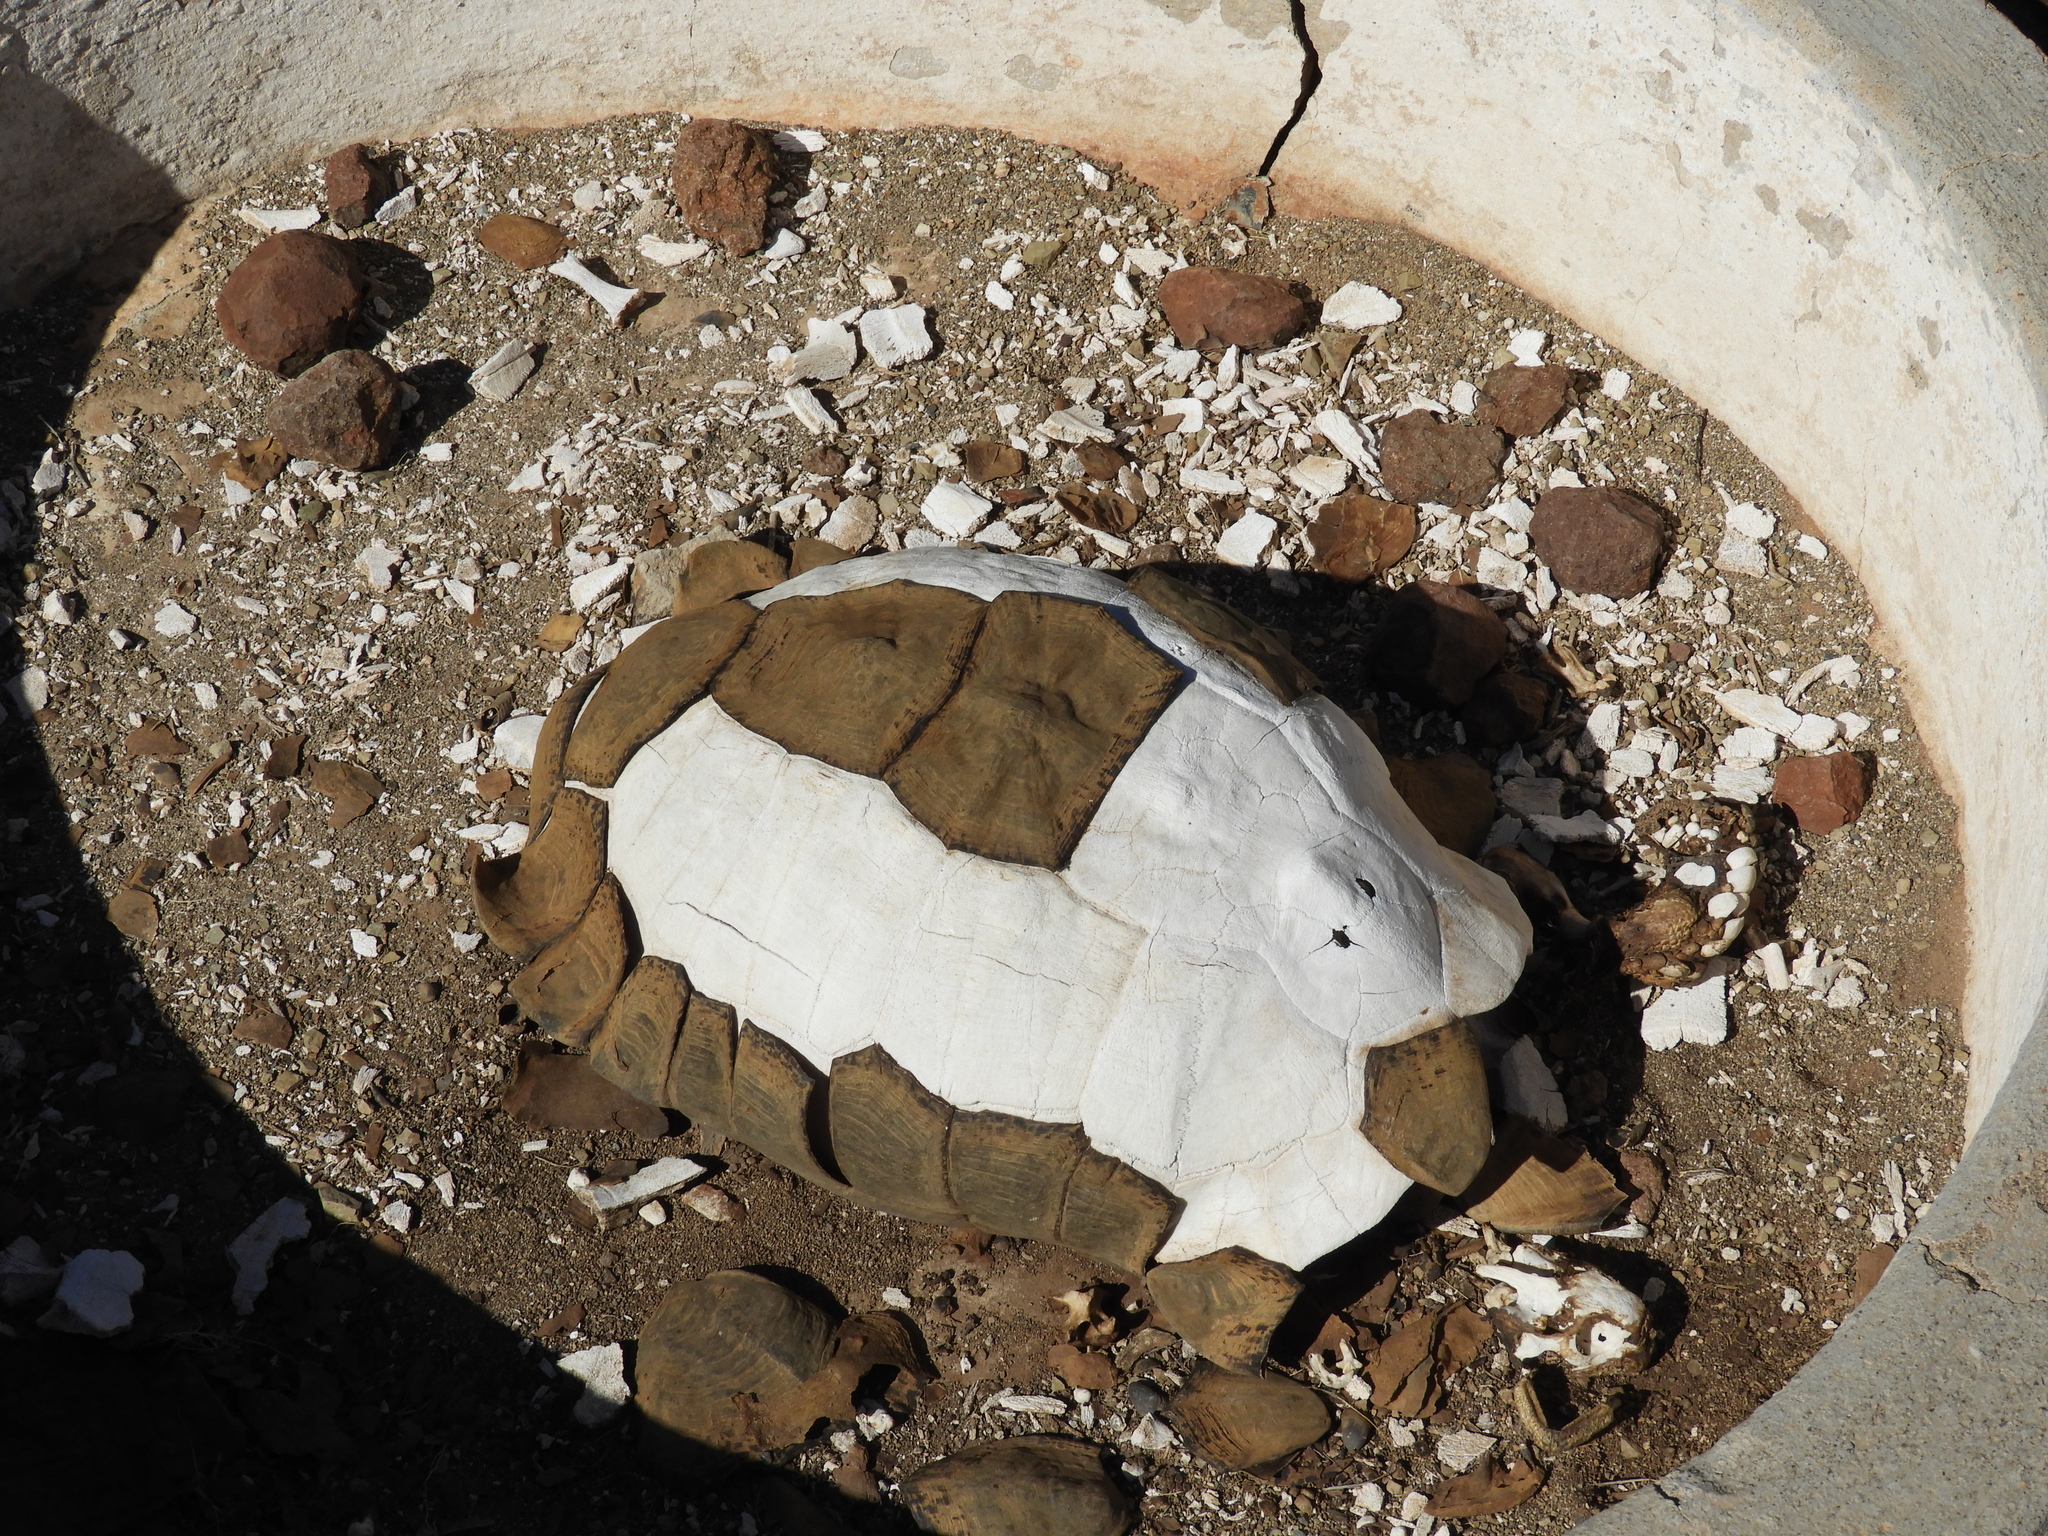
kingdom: Animalia
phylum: Chordata
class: Testudines
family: Testudinidae
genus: Stigmochelys
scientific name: Stigmochelys pardalis
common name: Leopard tortoise
